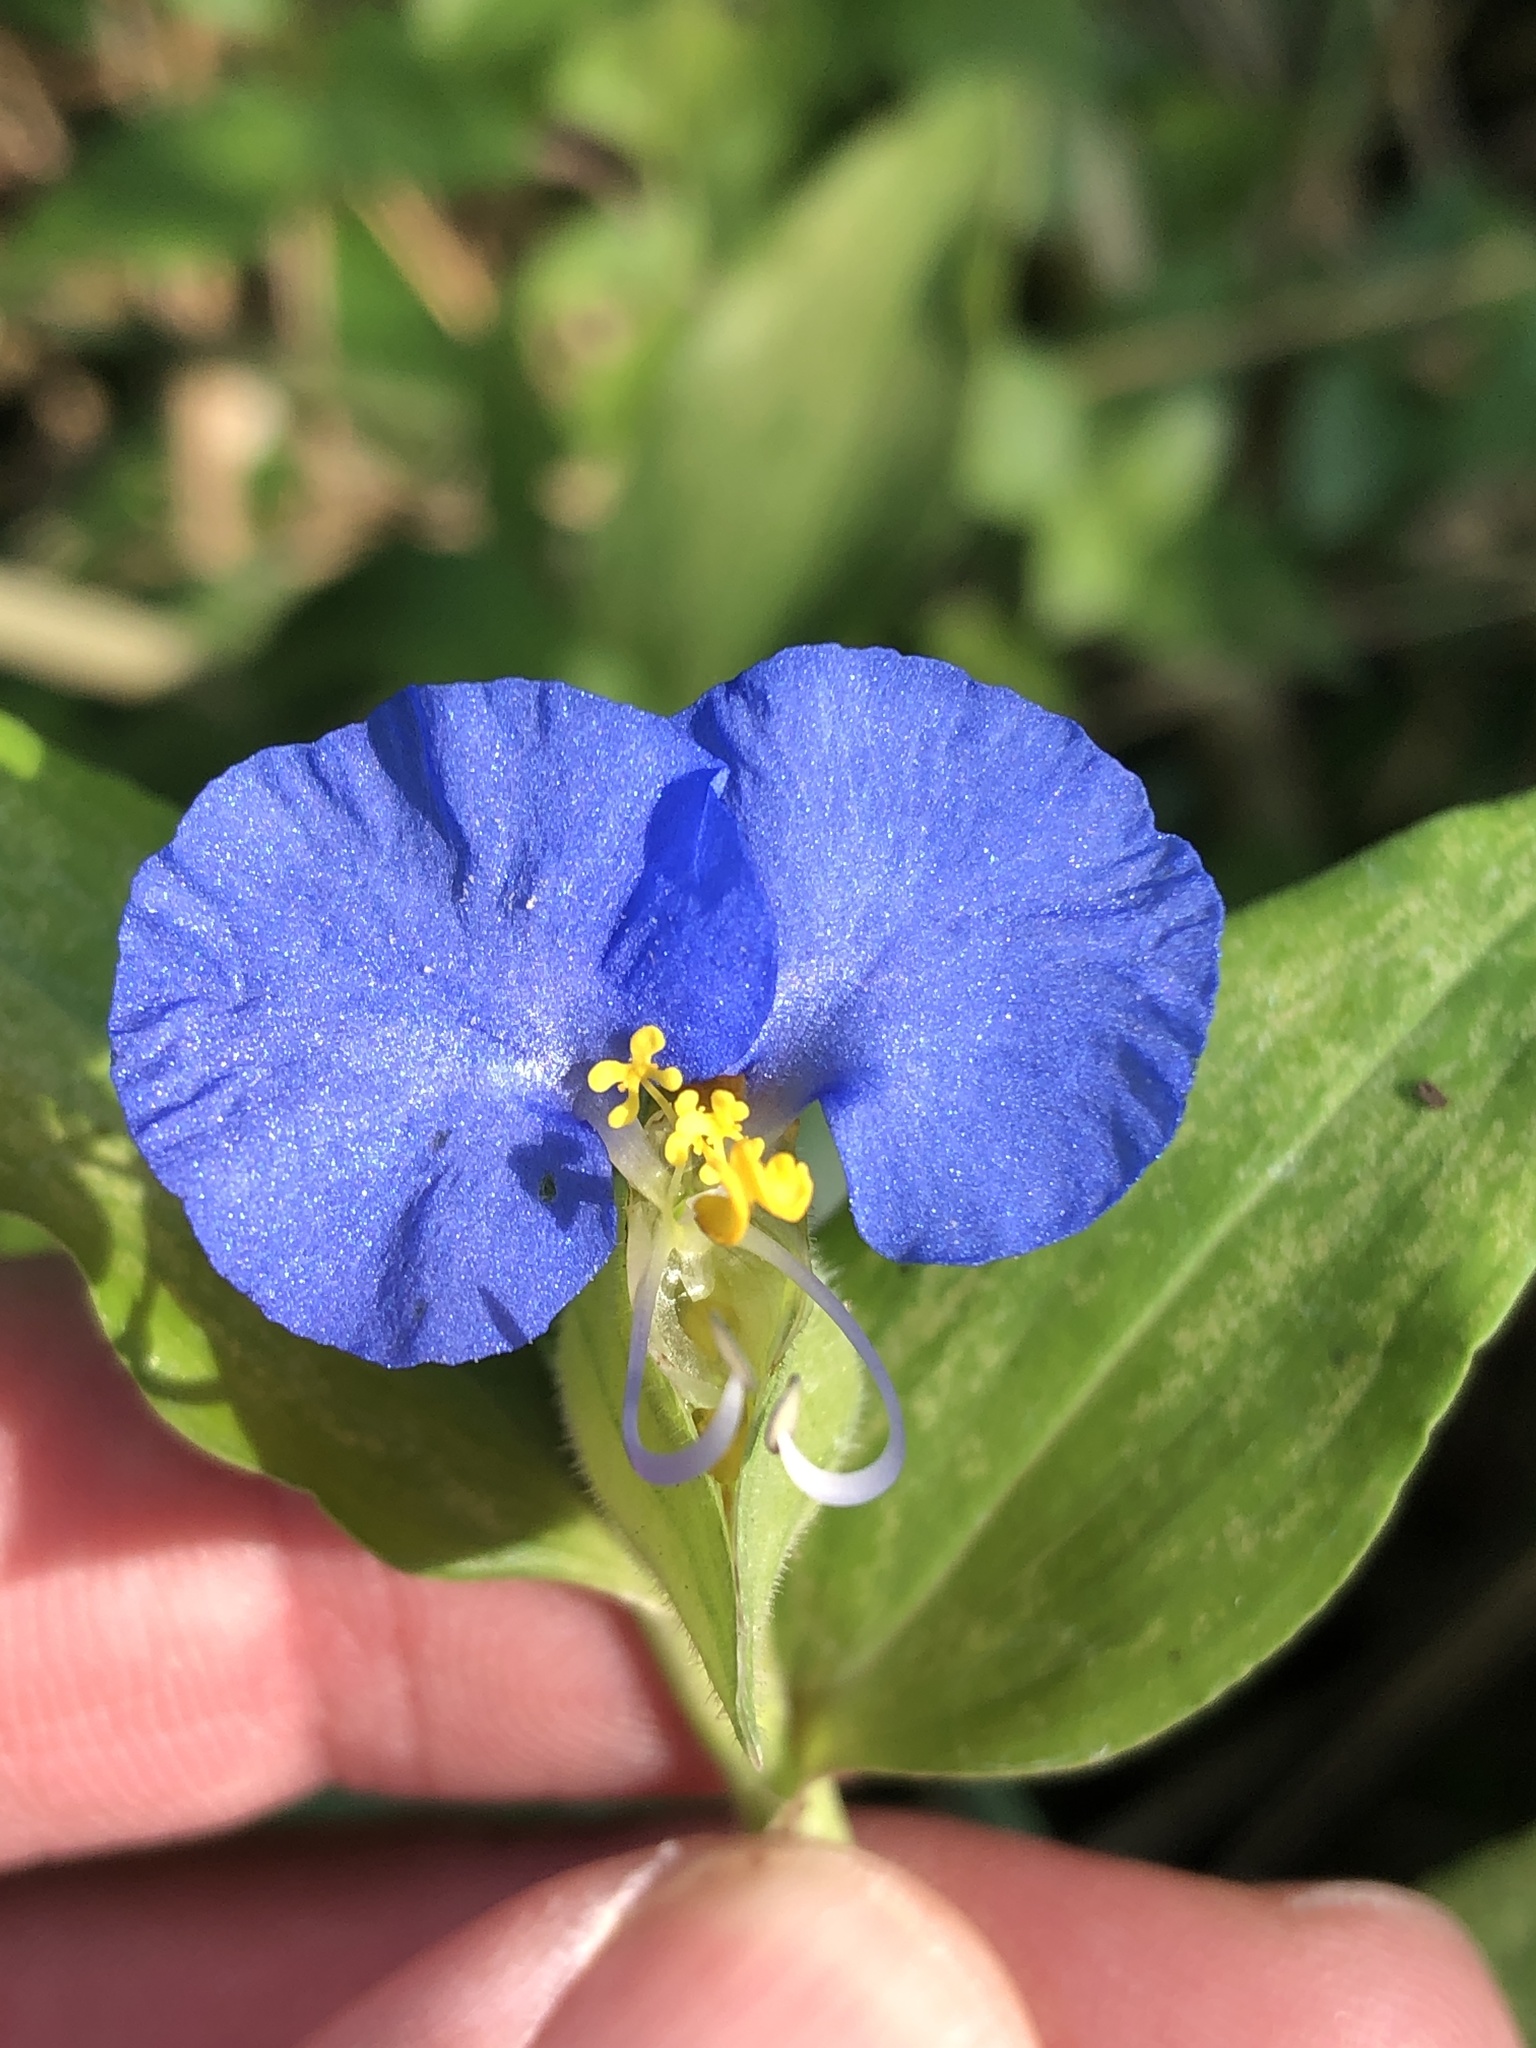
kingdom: Plantae
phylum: Tracheophyta
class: Liliopsida
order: Commelinales
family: Commelinaceae
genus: Commelina
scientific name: Commelina erecta
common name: Blousel blommetjie
